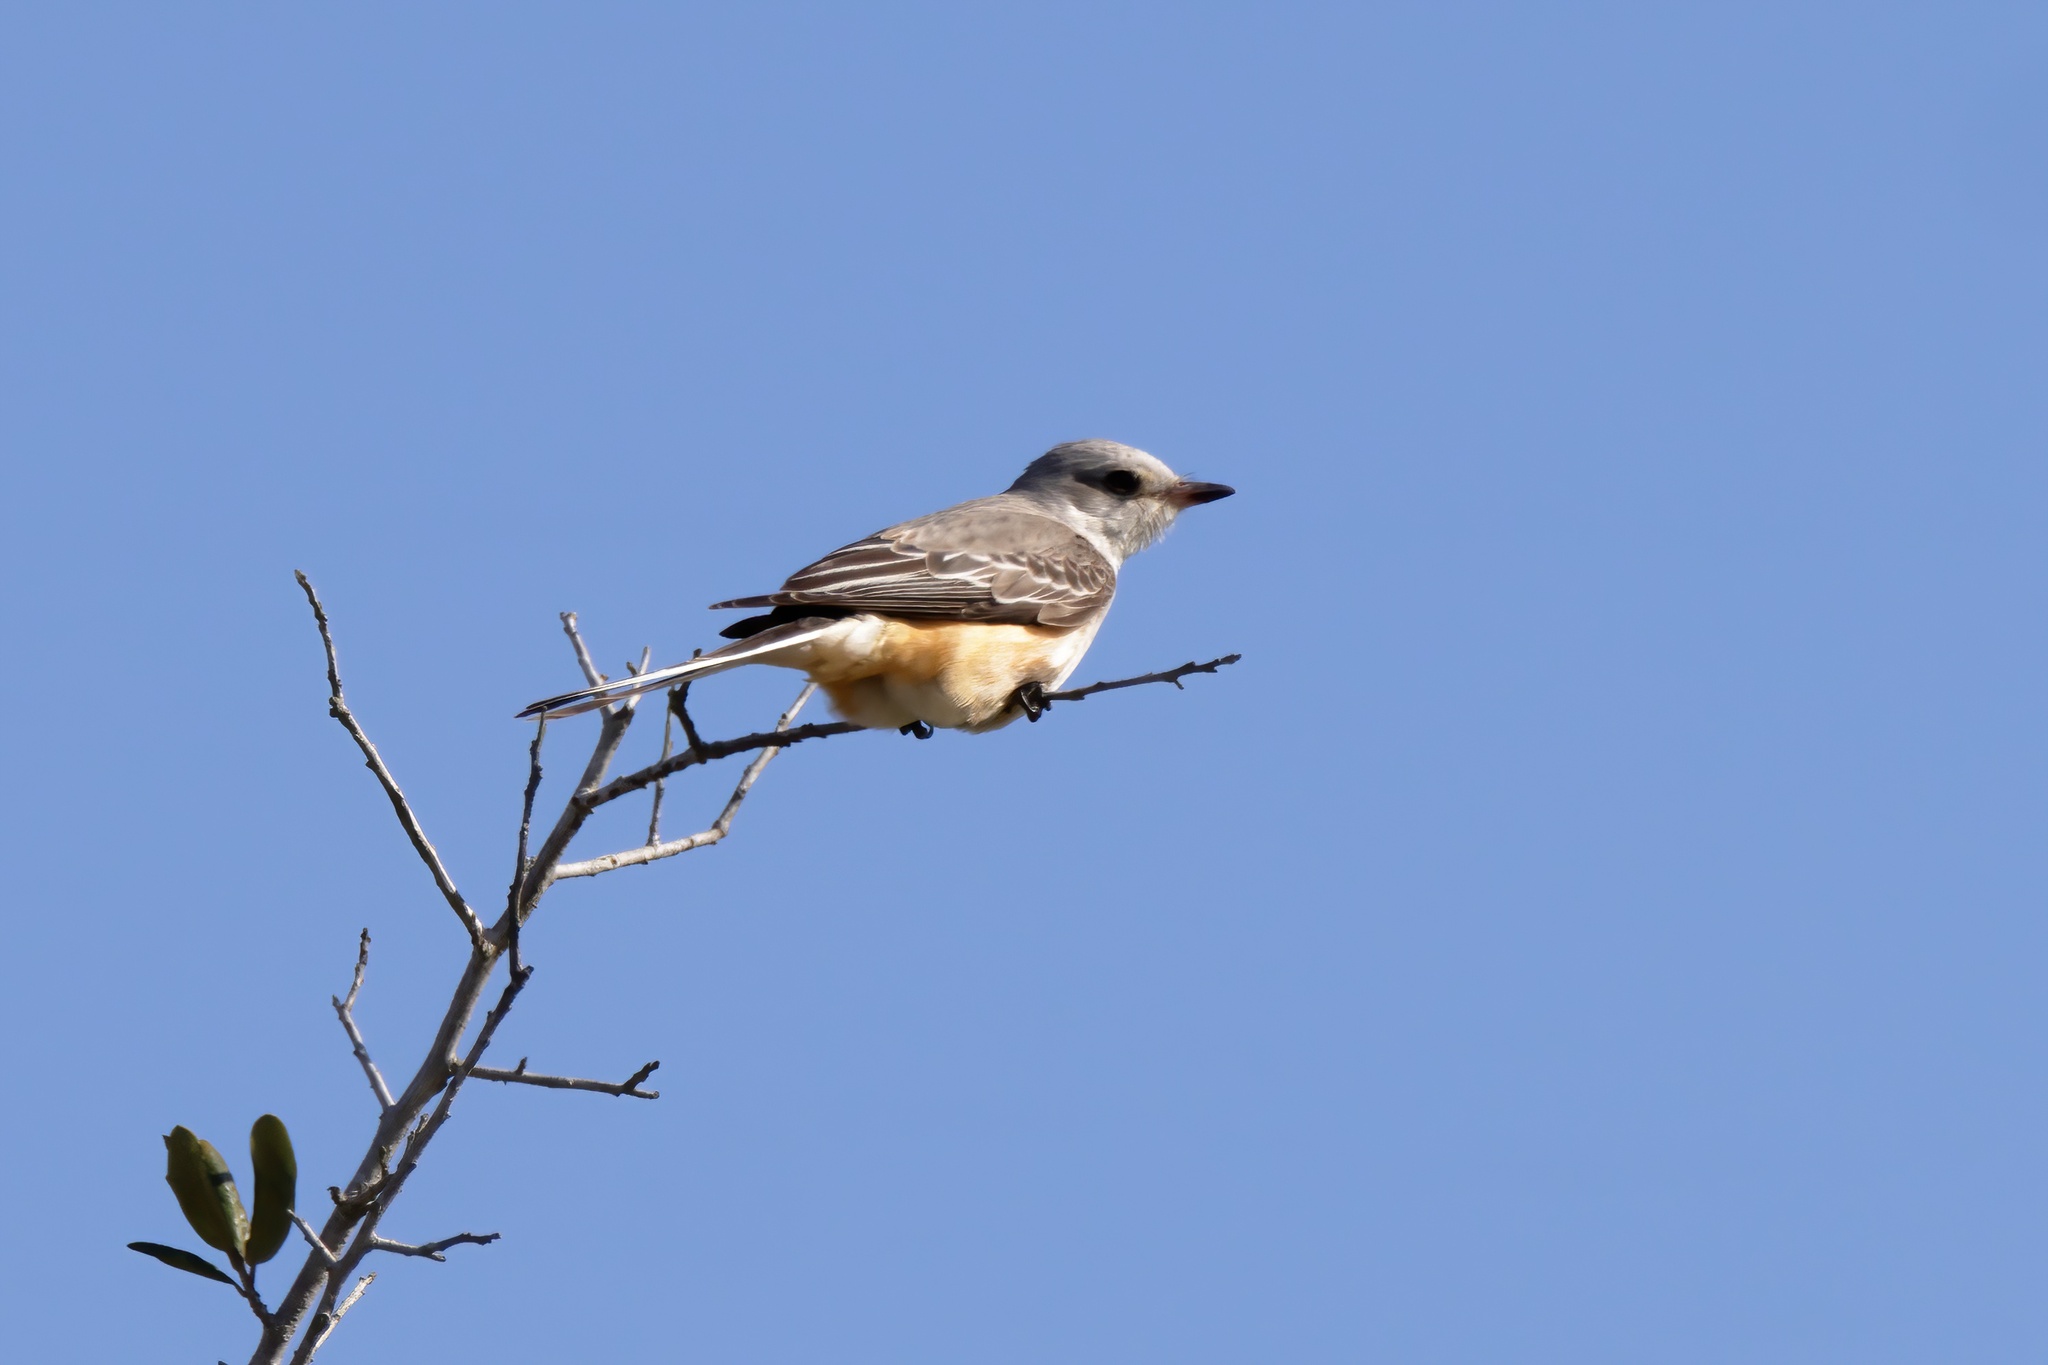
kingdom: Animalia
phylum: Chordata
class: Aves
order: Passeriformes
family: Tyrannidae
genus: Tyrannus
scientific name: Tyrannus forficatus
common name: Scissor-tailed flycatcher
